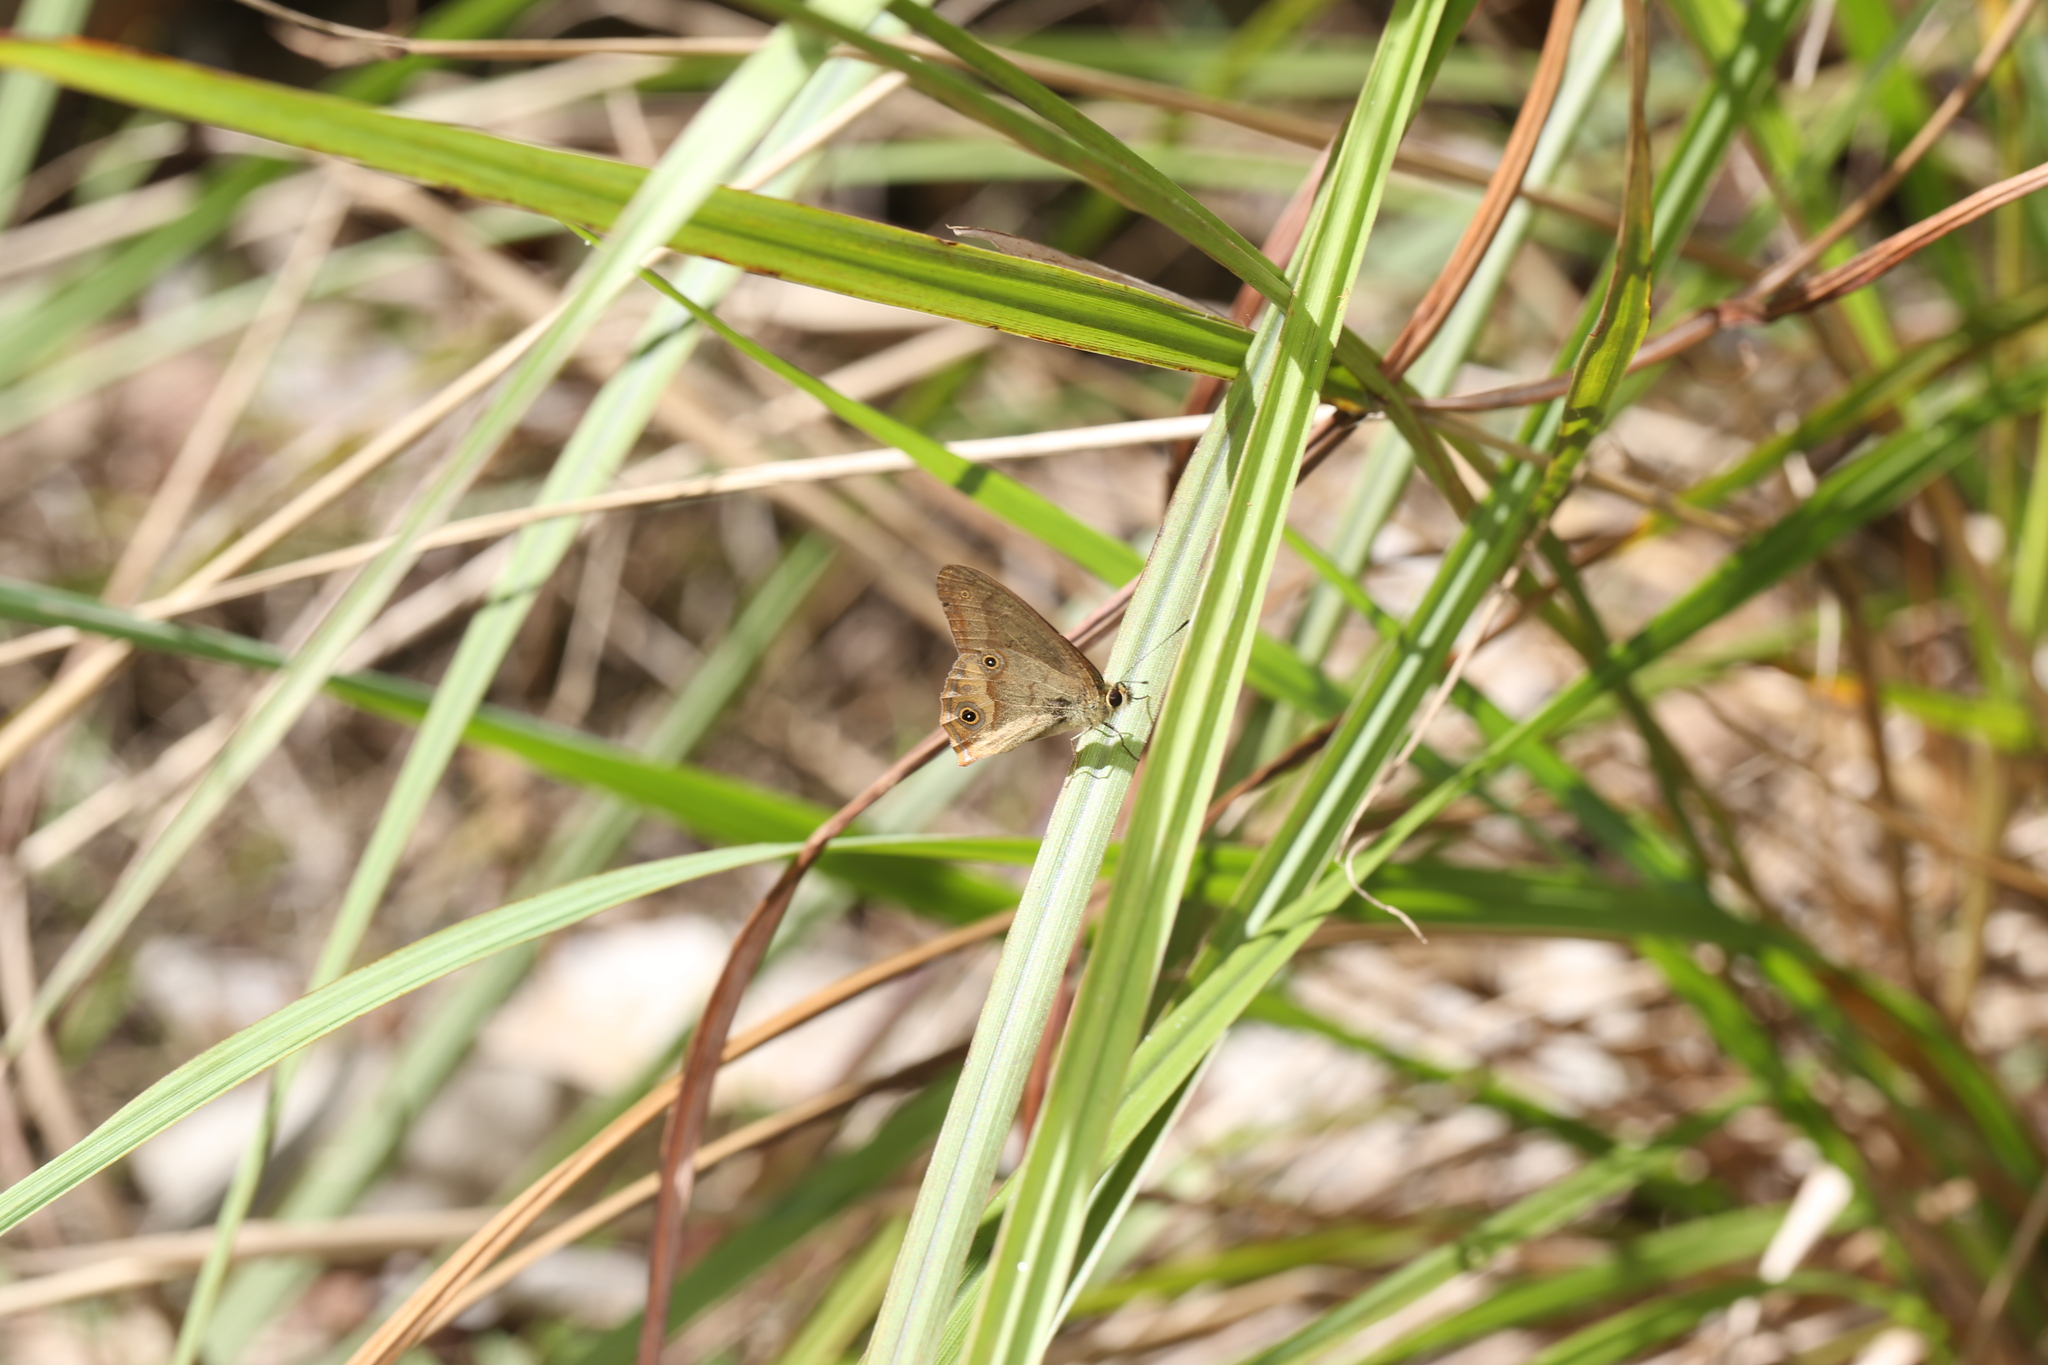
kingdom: Animalia
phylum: Arthropoda
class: Insecta
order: Lepidoptera
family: Nymphalidae
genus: Hypocysta
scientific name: Hypocysta metirius
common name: Brown ringlet
